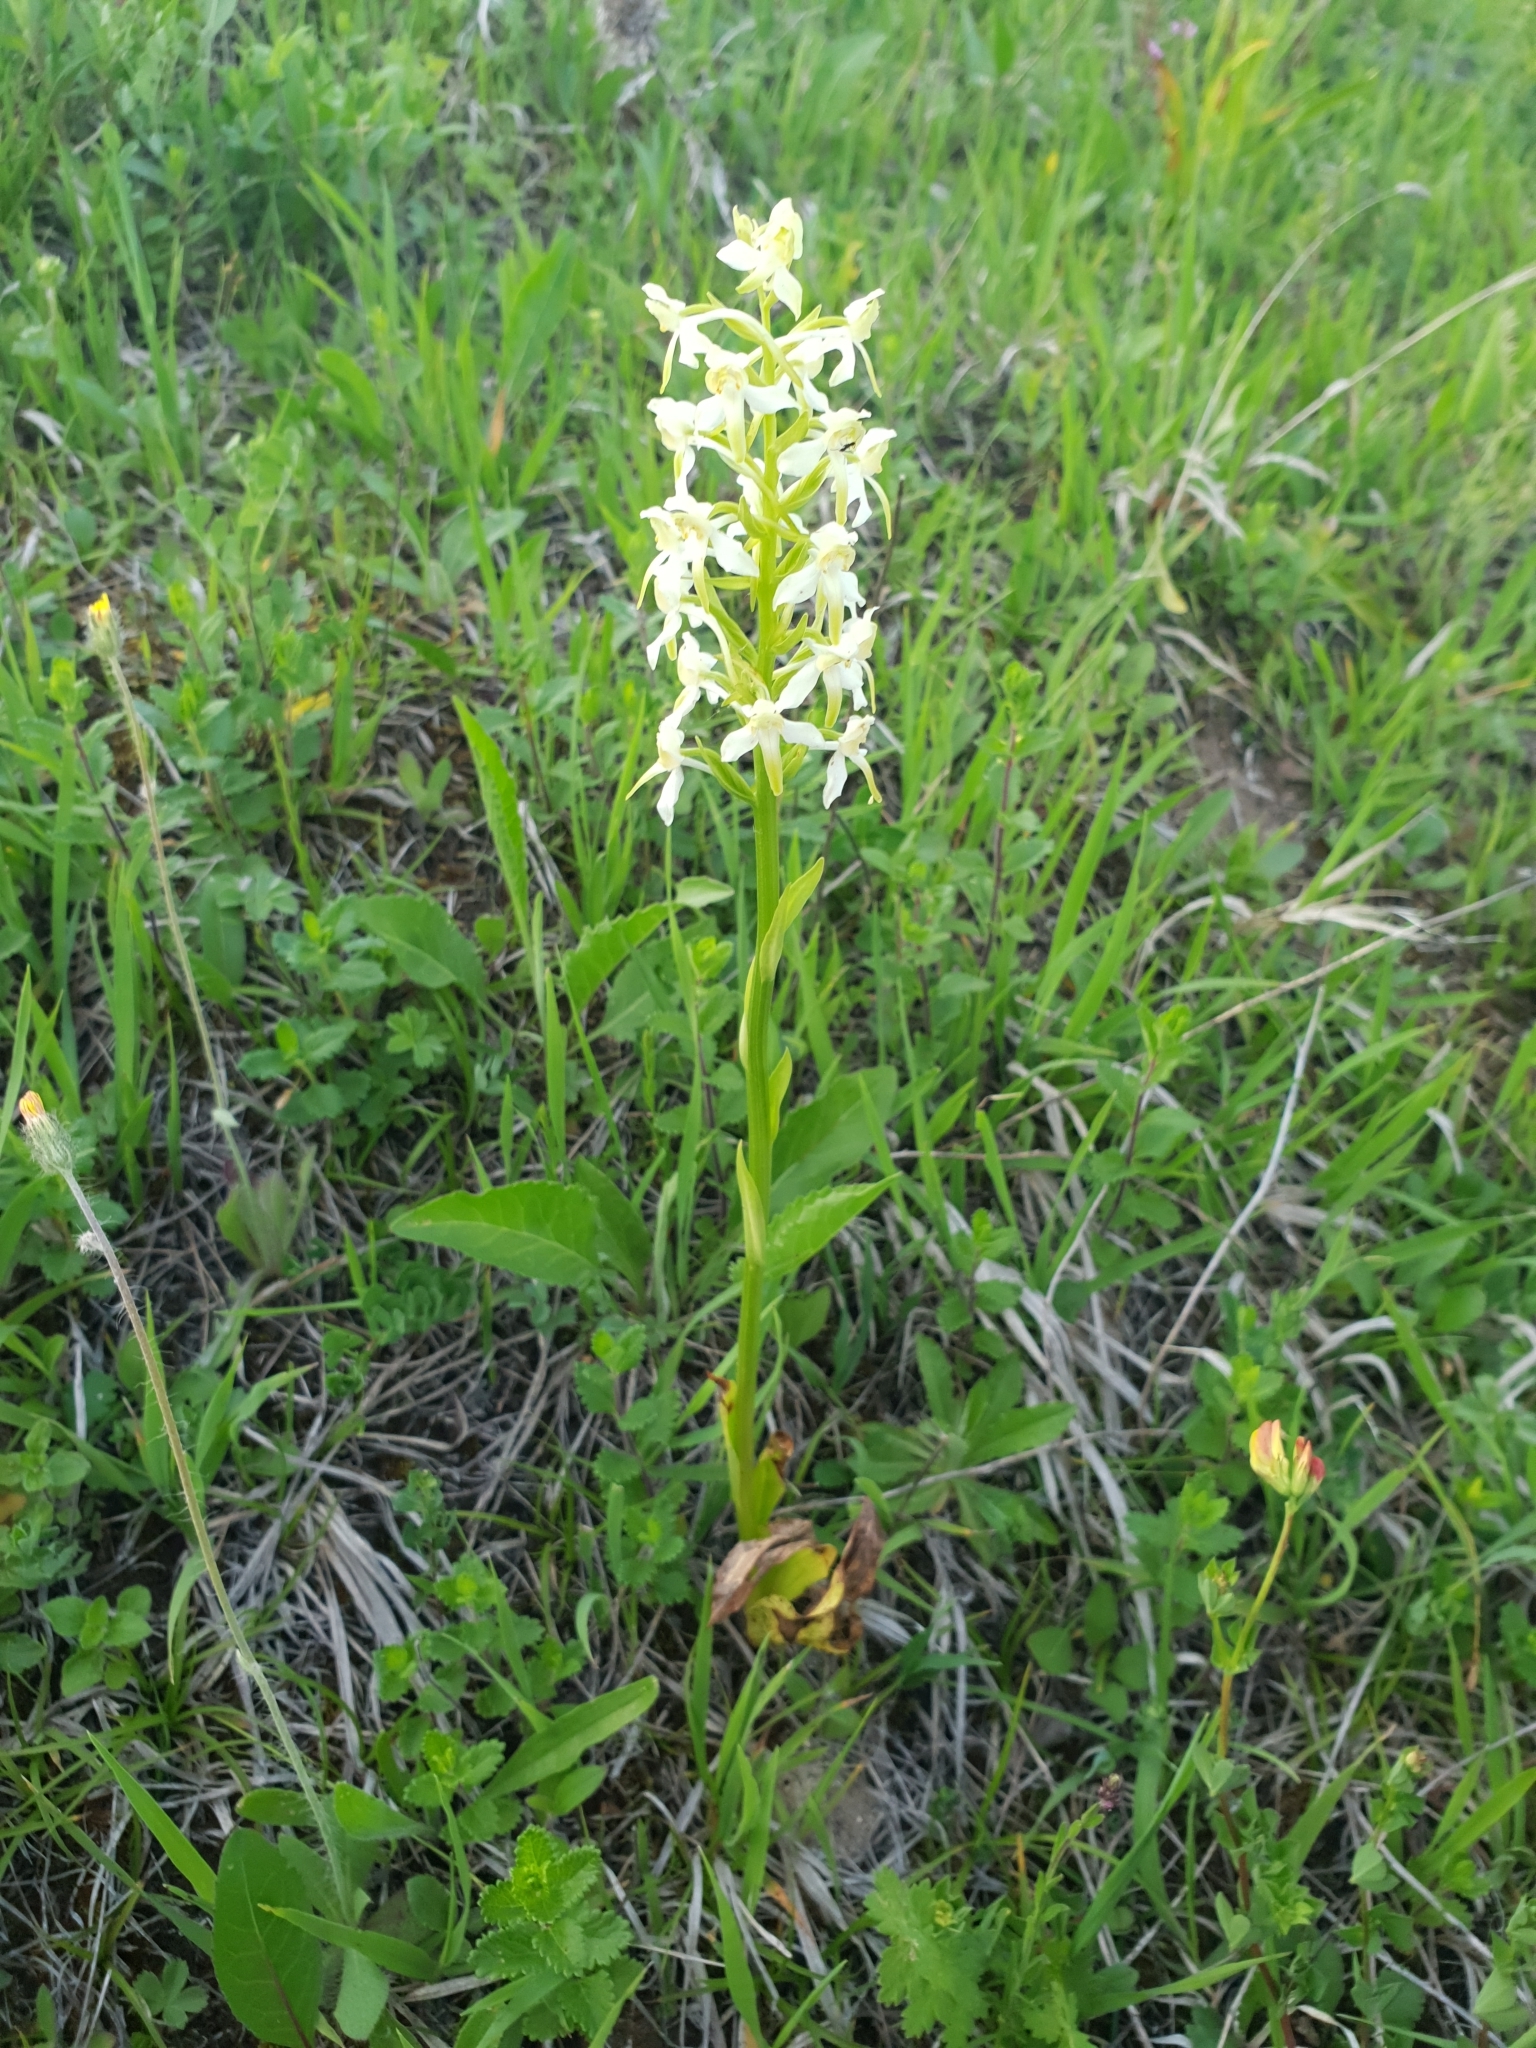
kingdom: Plantae
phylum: Tracheophyta
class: Liliopsida
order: Asparagales
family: Orchidaceae
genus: Platanthera
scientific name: Platanthera chlorantha
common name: Greater butterfly-orchid
